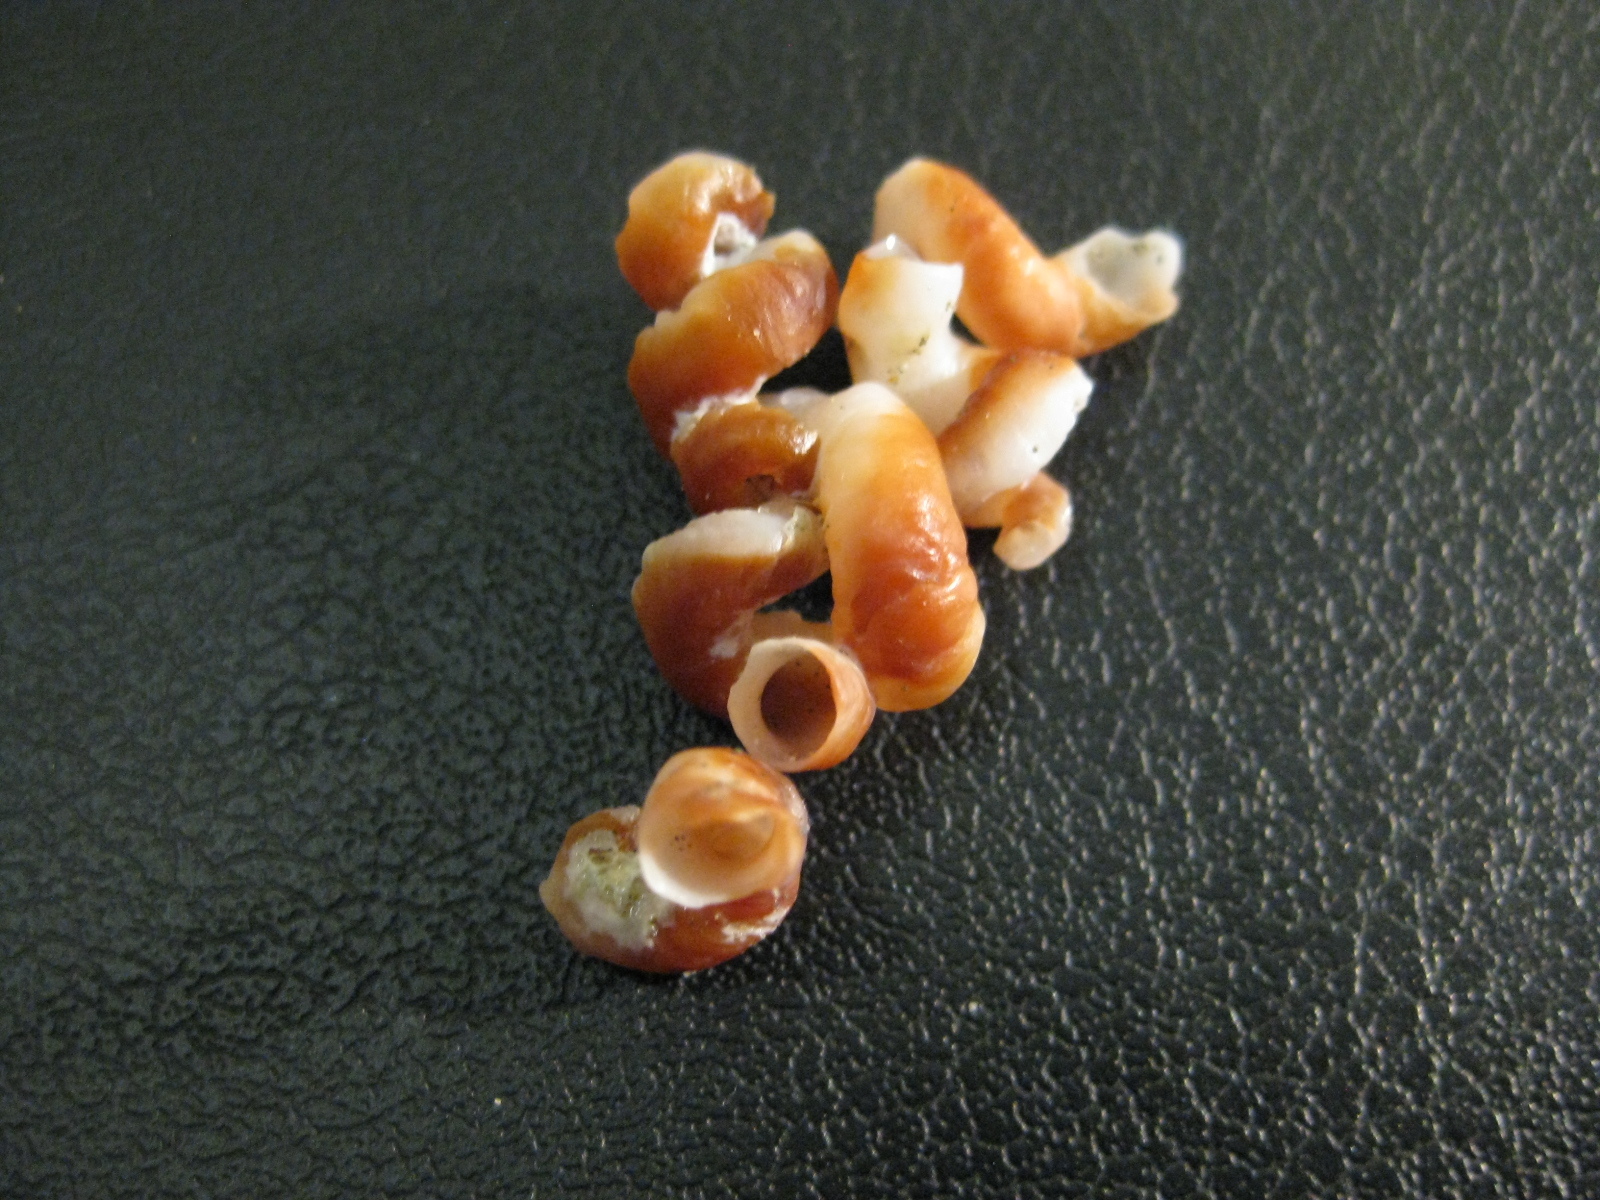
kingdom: Animalia
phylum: Mollusca
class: Gastropoda
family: Siliquariidae
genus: Stephopoma
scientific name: Stephopoma roseum
